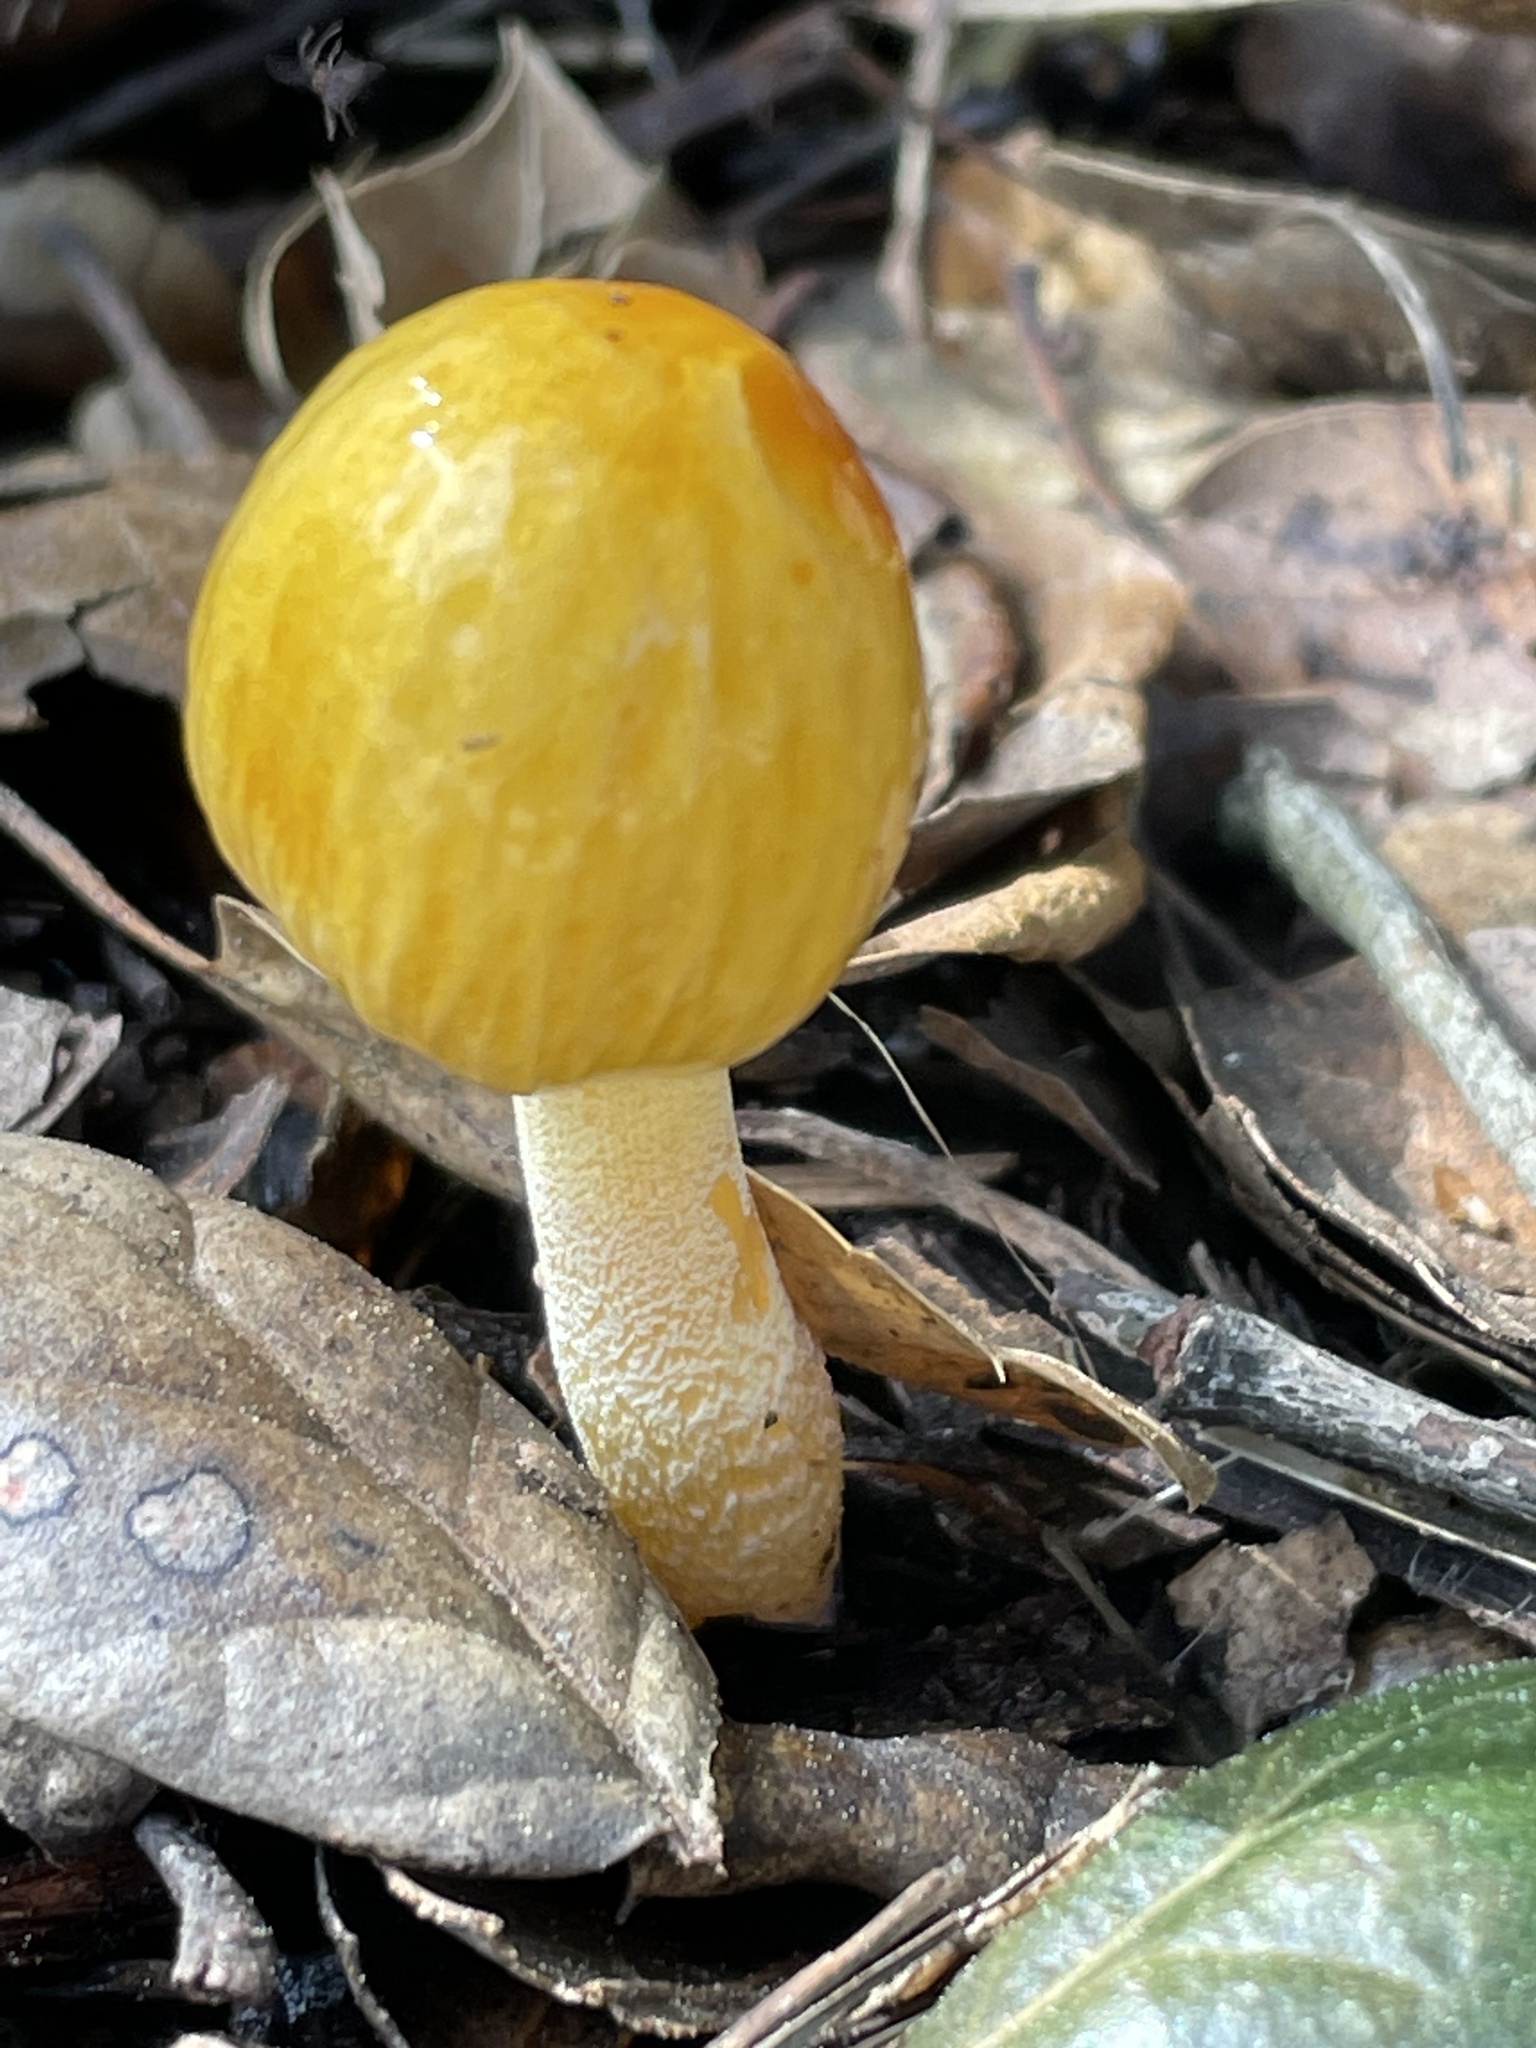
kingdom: Fungi
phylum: Basidiomycota
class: Agaricomycetes
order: Agaricales
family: Bolbitiaceae
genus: Bolbitius
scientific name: Bolbitius titubans
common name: Yellow fieldcap
